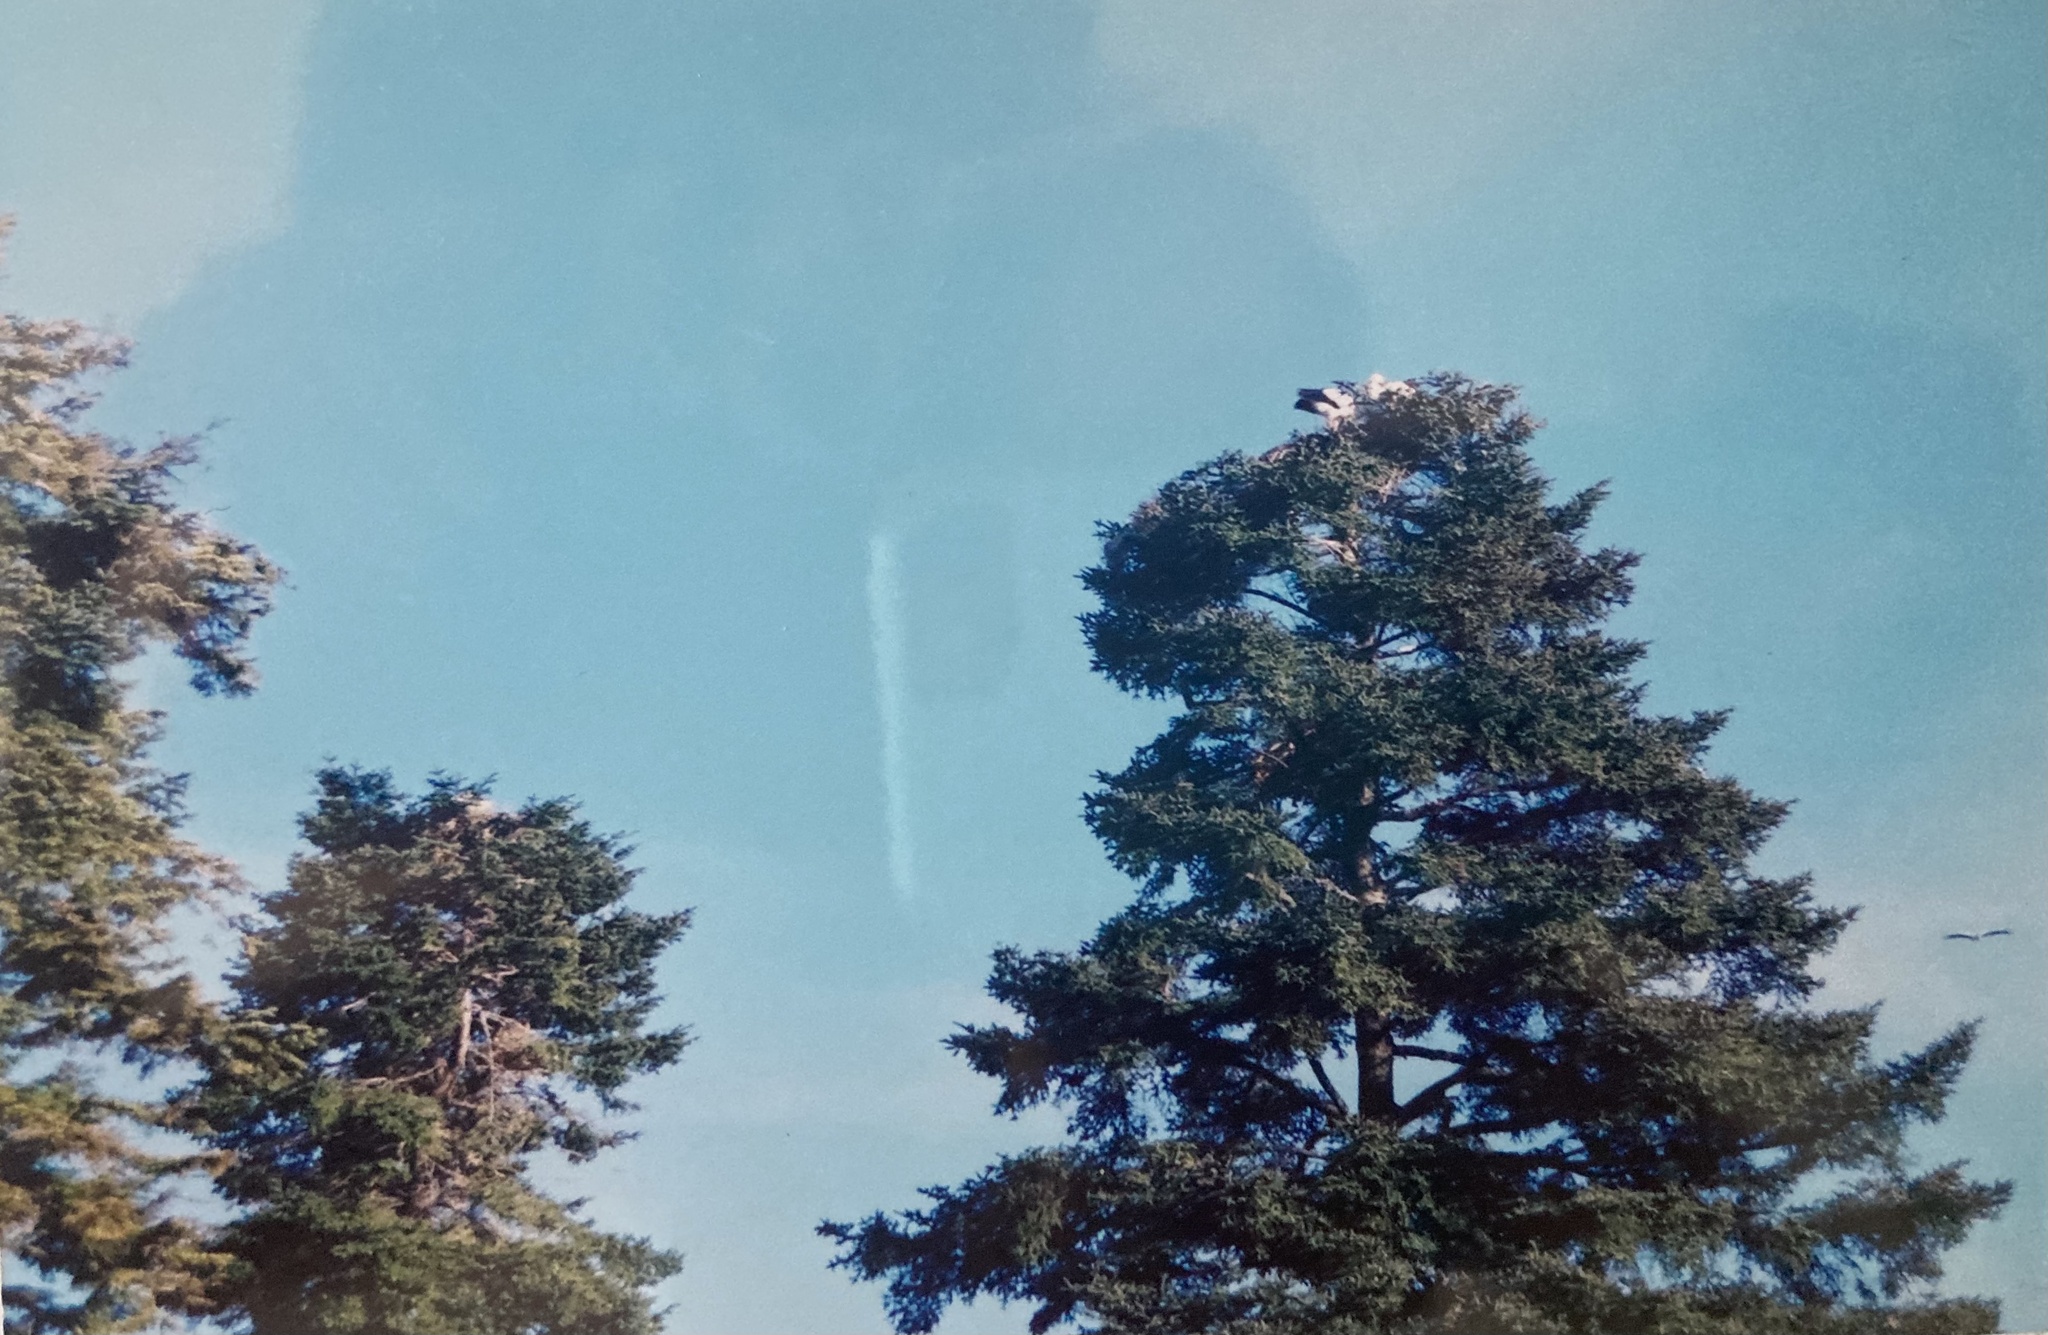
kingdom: Animalia
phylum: Chordata
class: Aves
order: Ciconiiformes
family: Ciconiidae
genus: Ciconia
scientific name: Ciconia ciconia
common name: White stork
